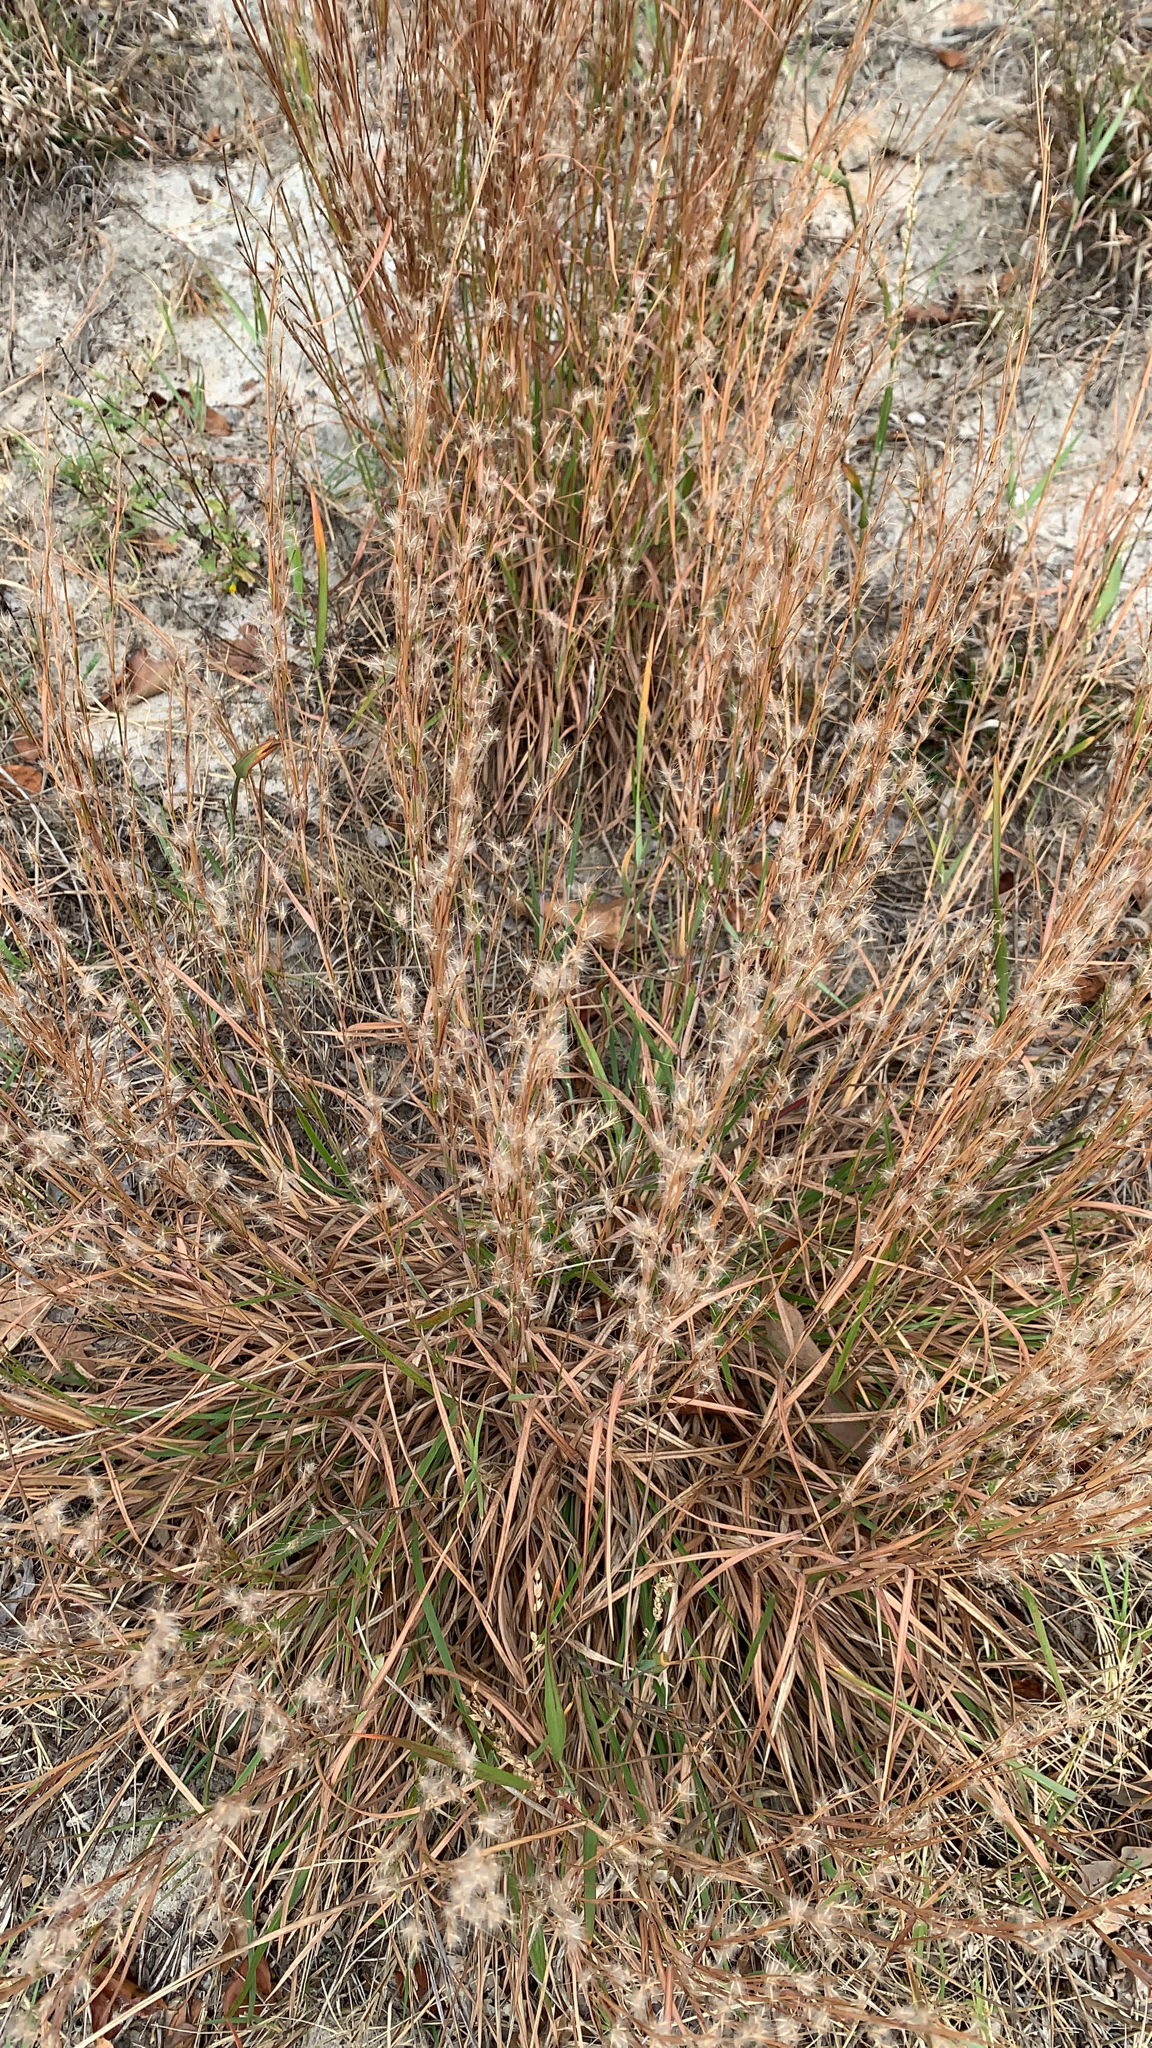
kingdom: Plantae
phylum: Tracheophyta
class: Liliopsida
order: Poales
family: Poaceae
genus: Schizachyrium
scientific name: Schizachyrium scoparium
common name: Little bluestem
